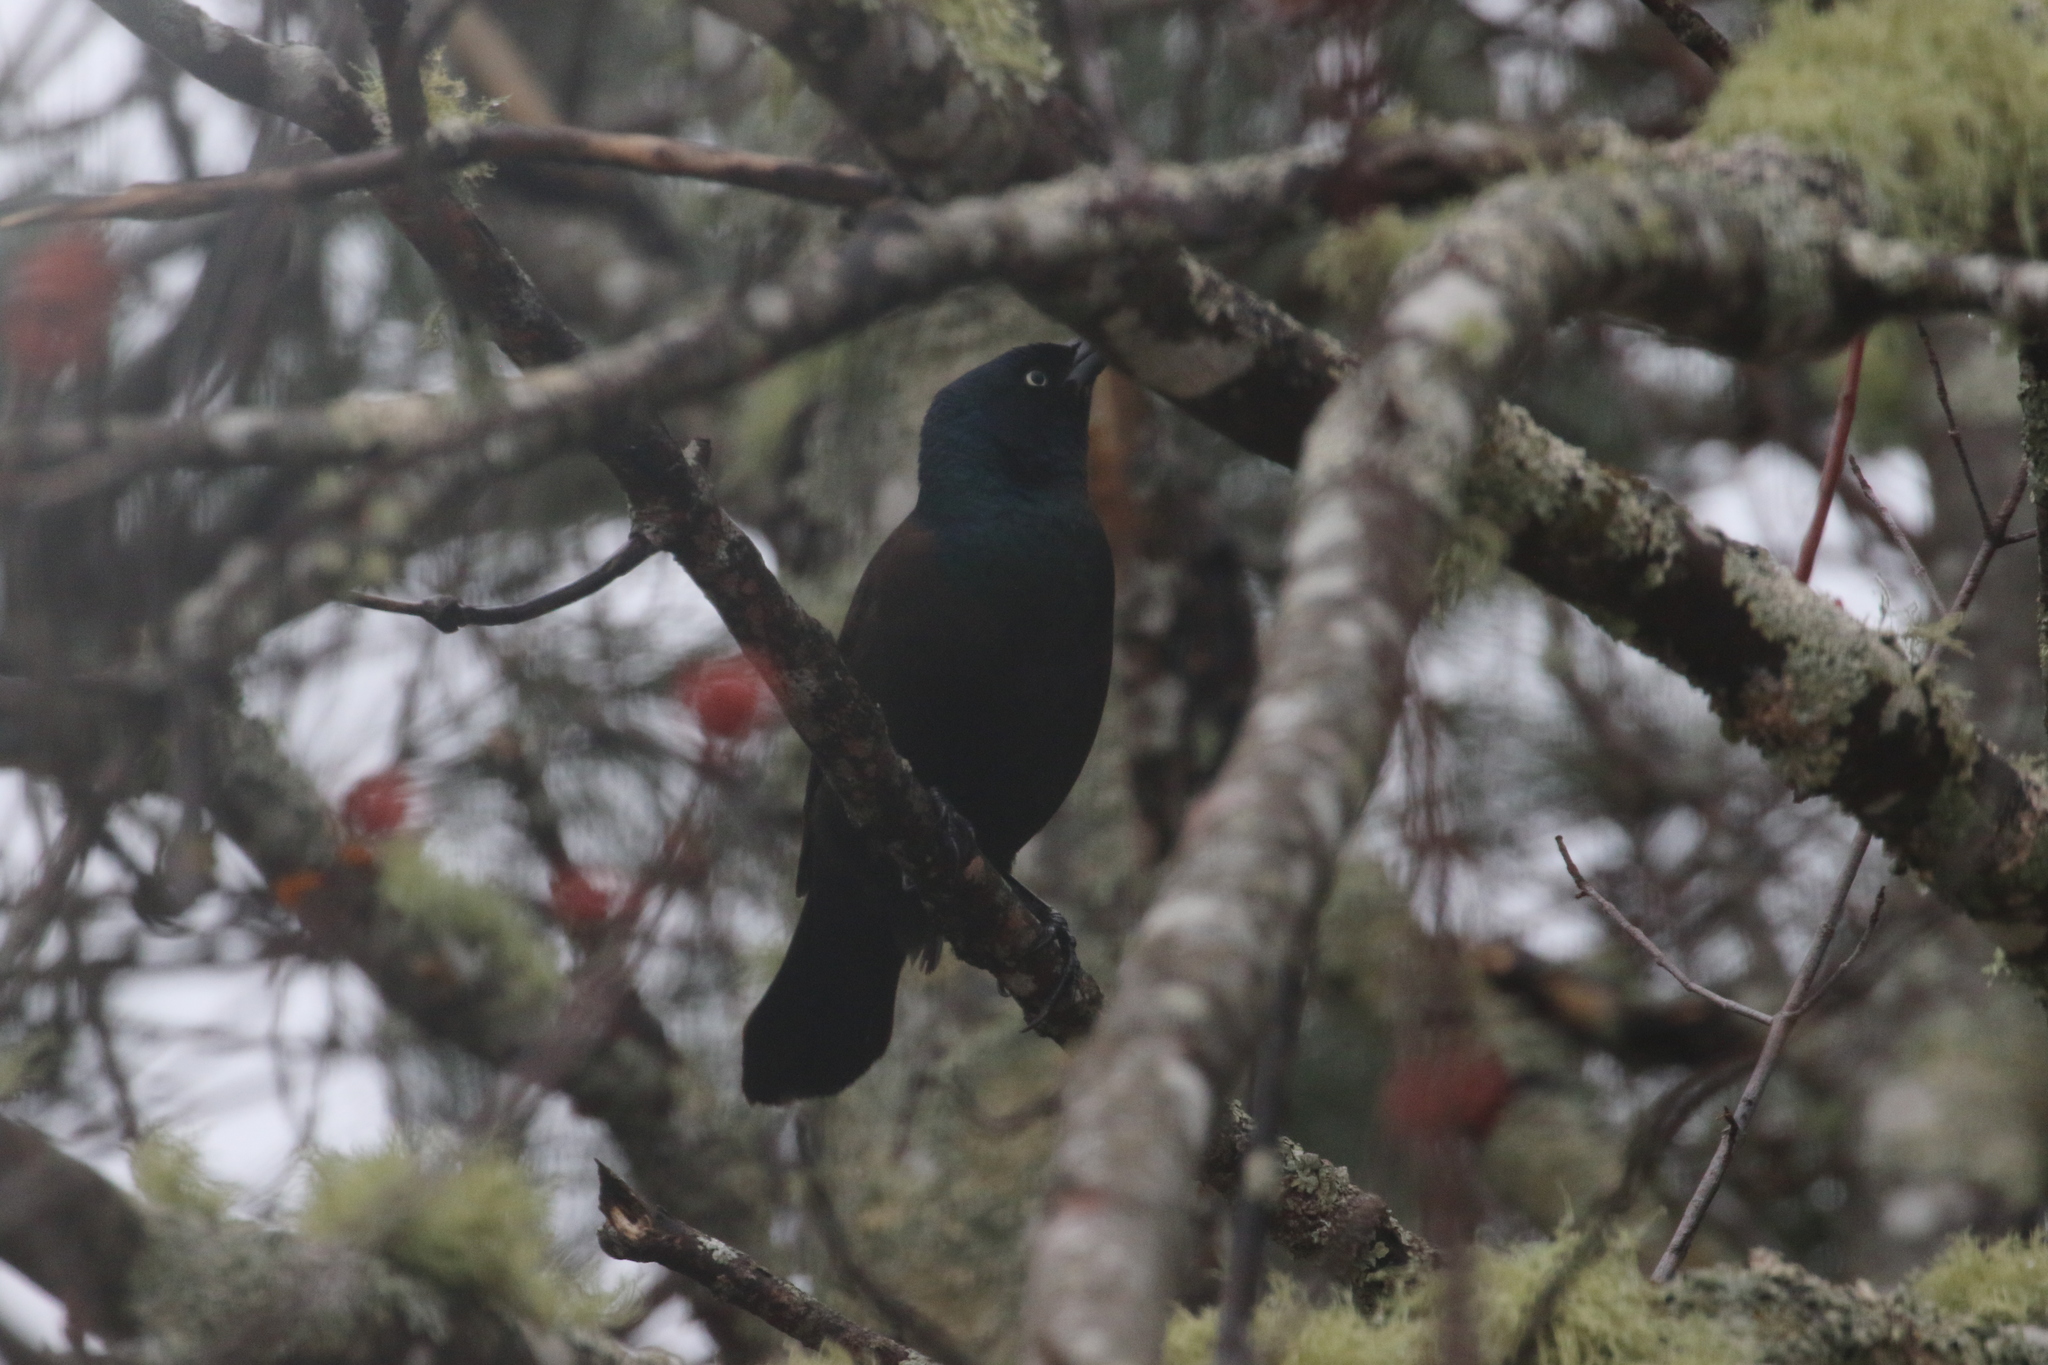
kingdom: Animalia
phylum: Chordata
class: Aves
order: Passeriformes
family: Icteridae
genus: Quiscalus
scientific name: Quiscalus quiscula
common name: Common grackle
